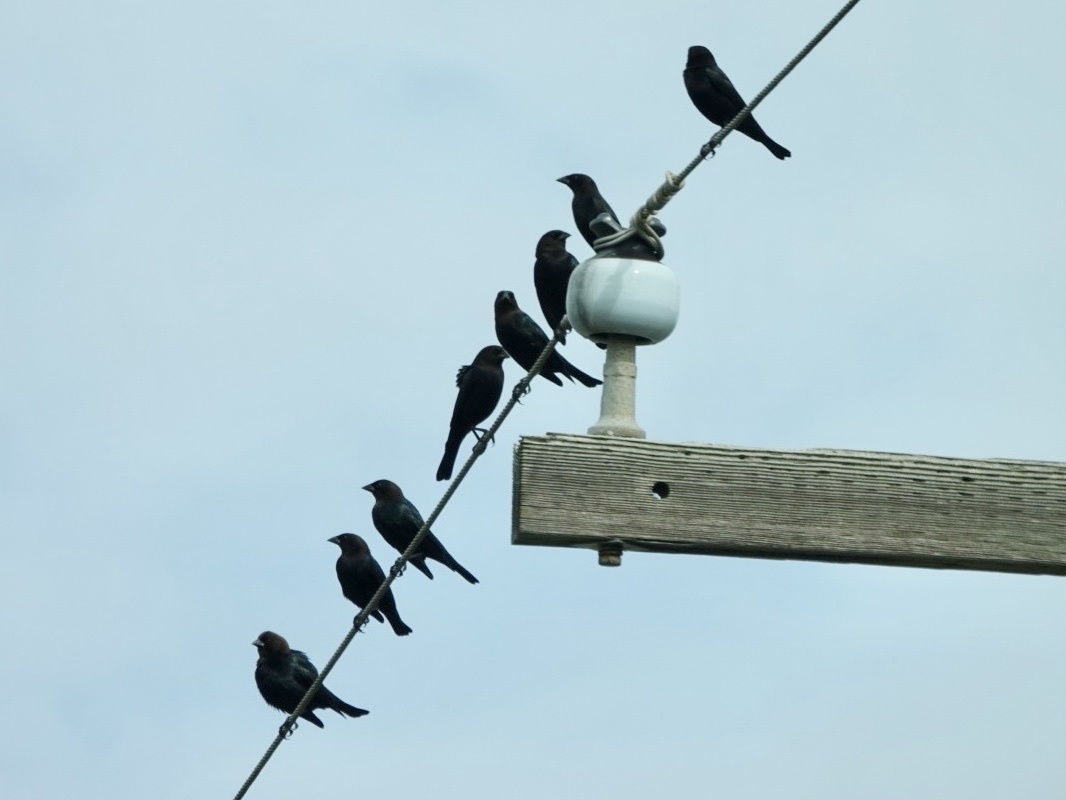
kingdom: Animalia
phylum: Chordata
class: Aves
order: Passeriformes
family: Icteridae
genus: Molothrus
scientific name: Molothrus ater
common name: Brown-headed cowbird
